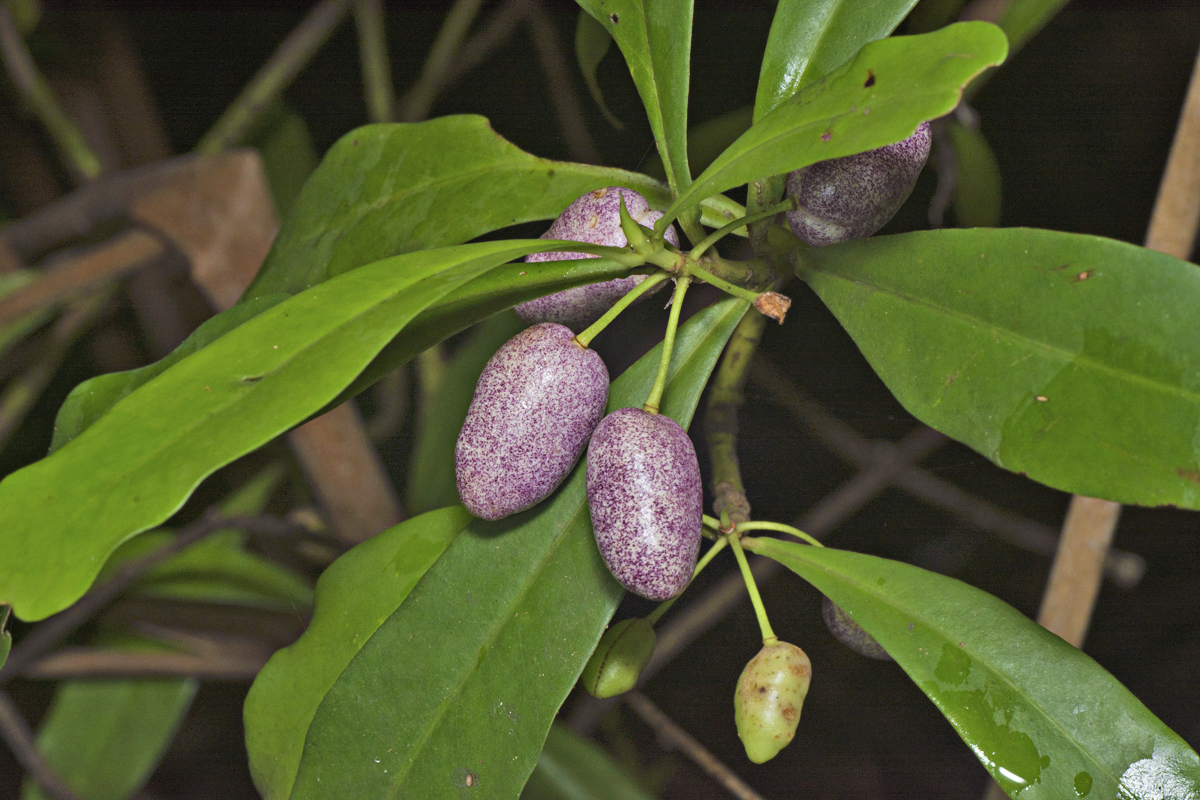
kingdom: Plantae
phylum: Tracheophyta
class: Magnoliopsida
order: Canellales
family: Winteraceae
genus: Drimys
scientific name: Drimys insipida
